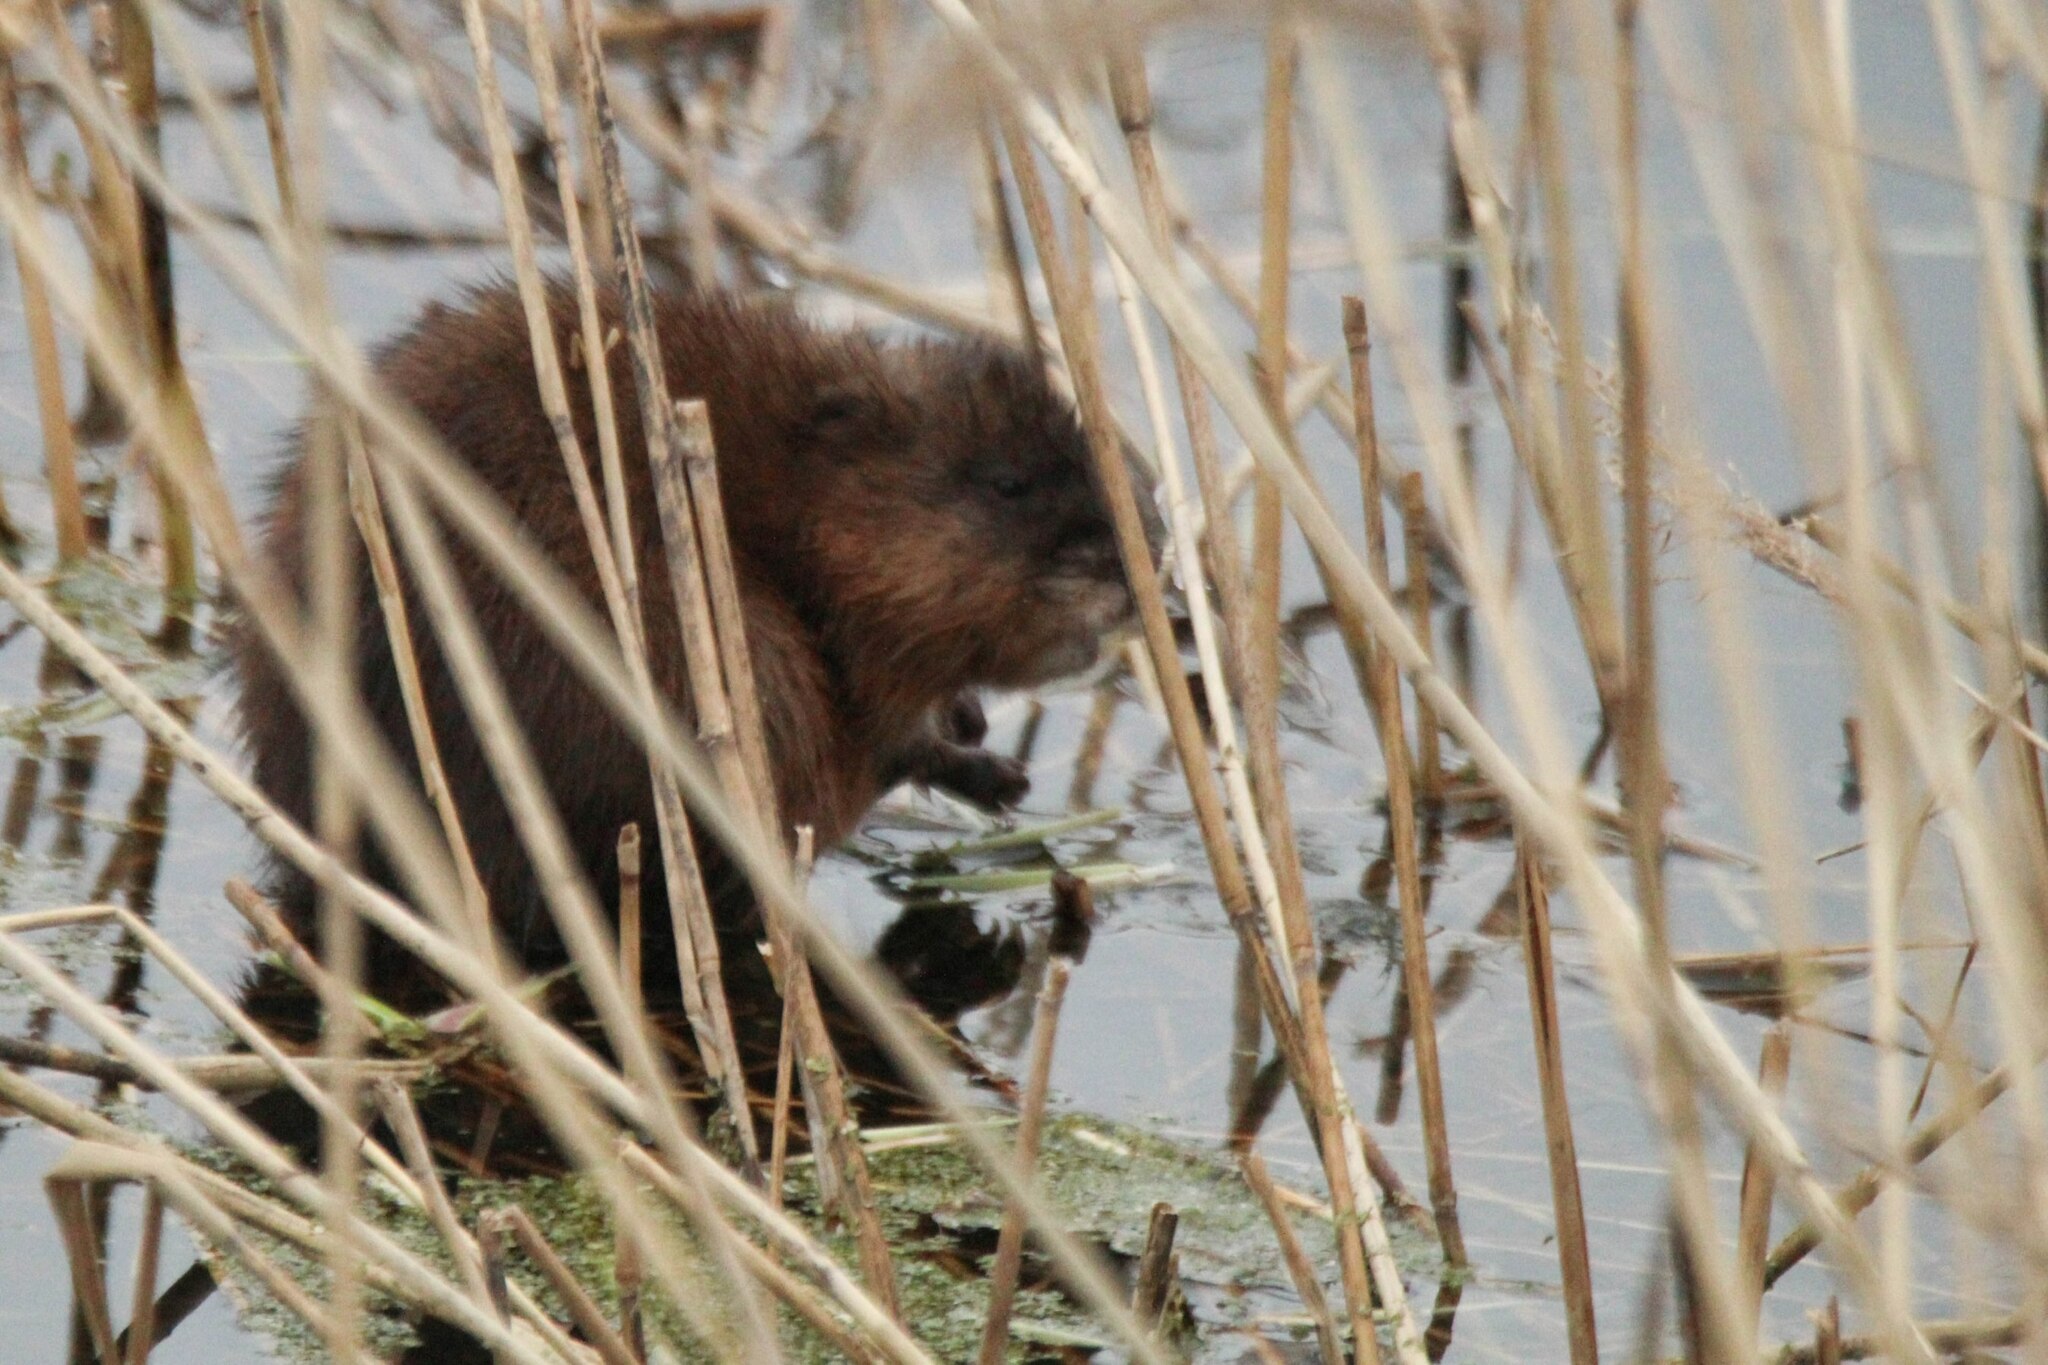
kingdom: Animalia
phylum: Chordata
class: Mammalia
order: Rodentia
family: Cricetidae
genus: Ondatra
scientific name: Ondatra zibethicus
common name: Muskrat
